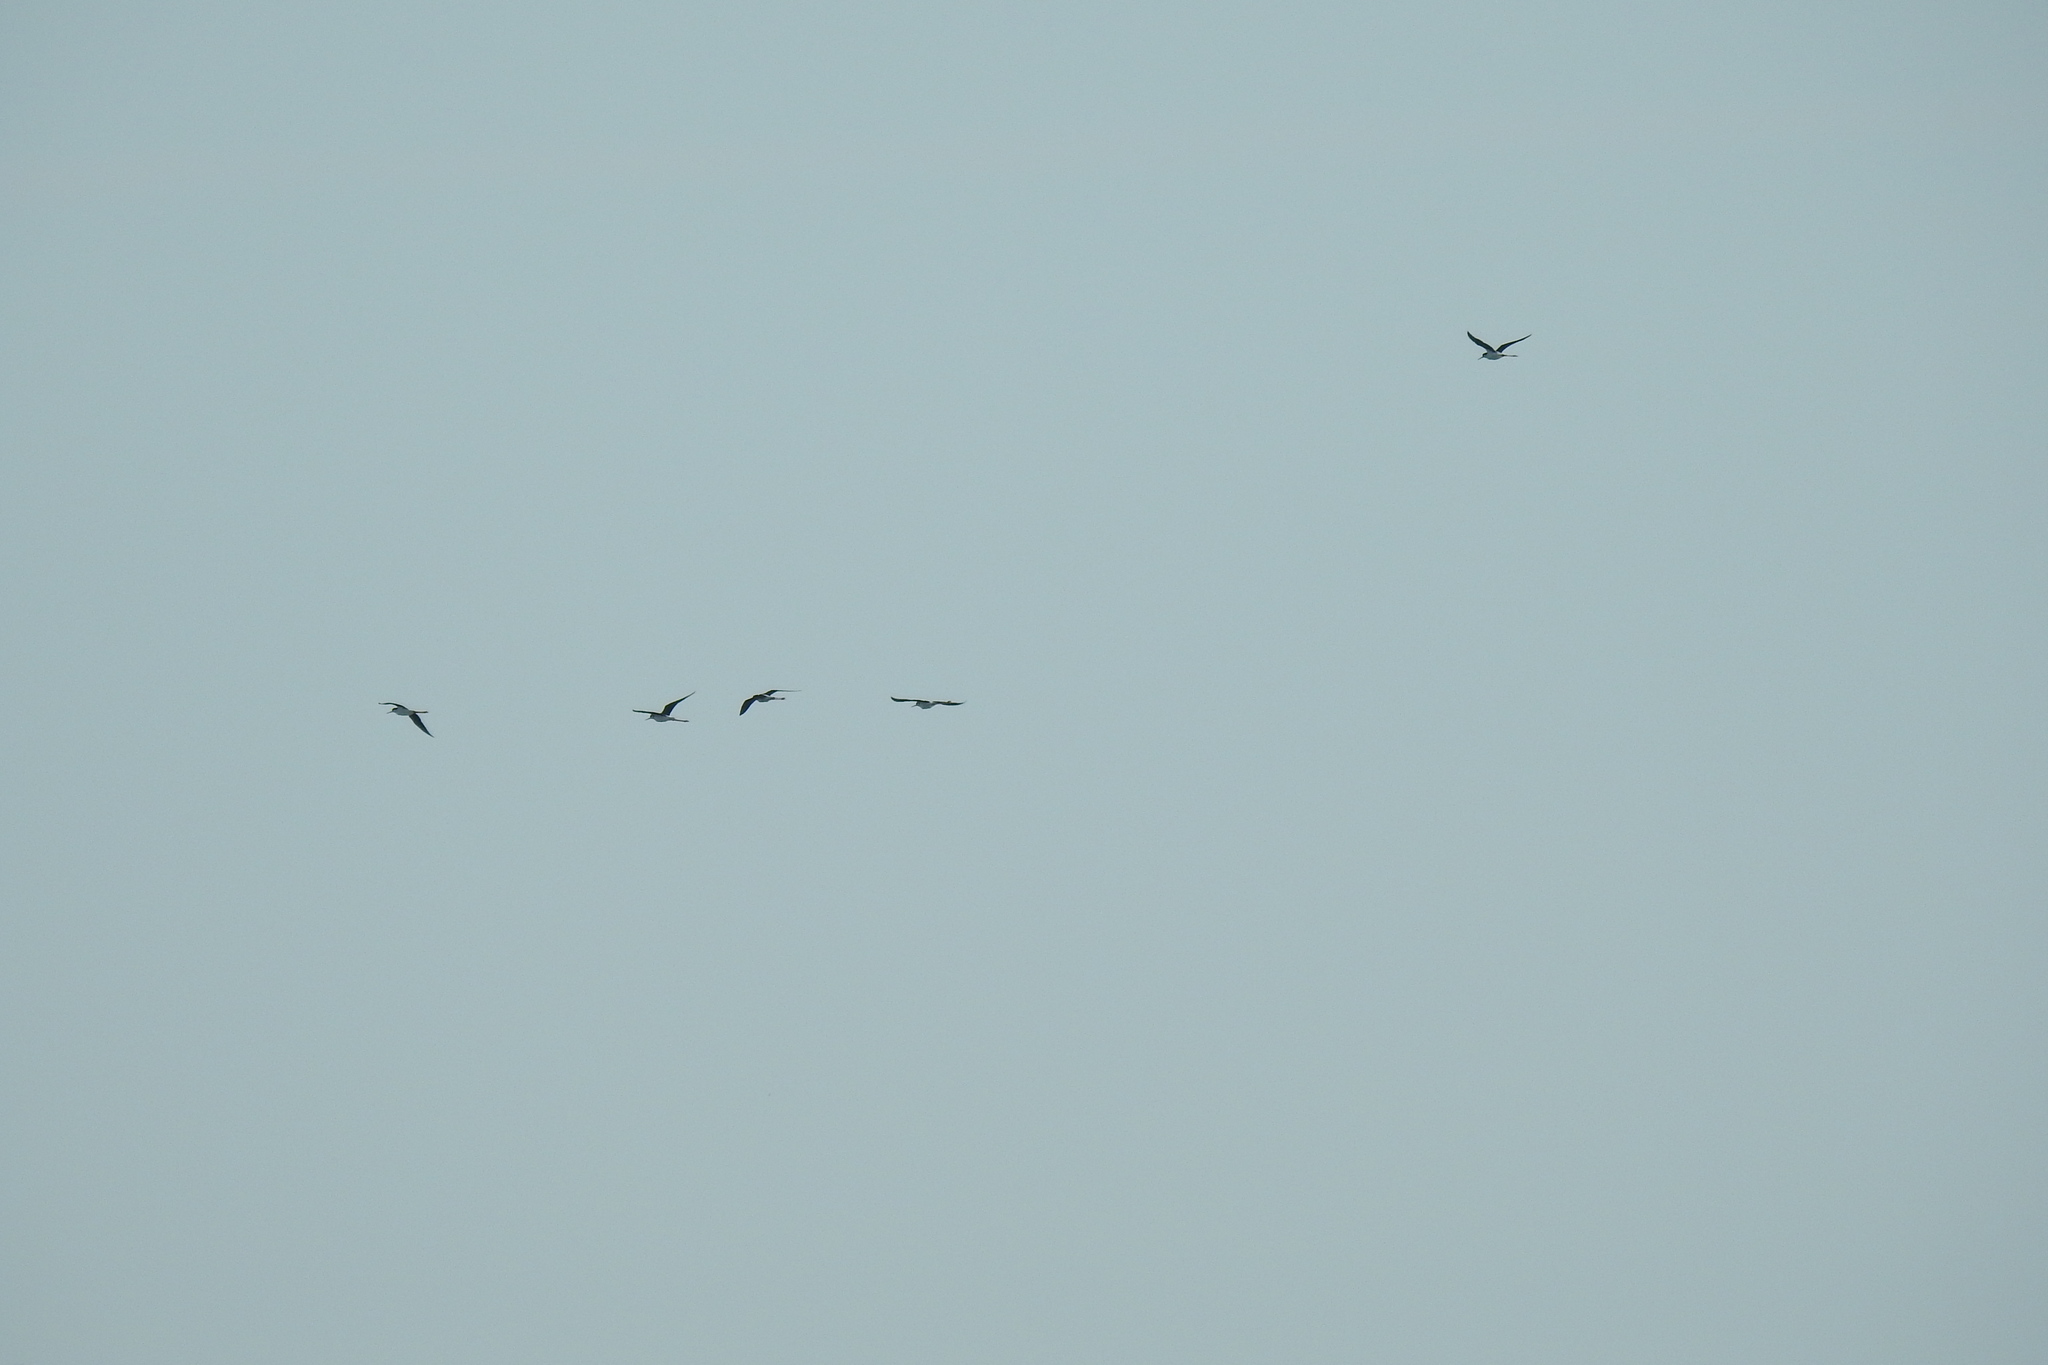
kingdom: Animalia
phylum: Chordata
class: Aves
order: Charadriiformes
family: Recurvirostridae
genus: Himantopus
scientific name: Himantopus mexicanus
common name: Black-necked stilt
